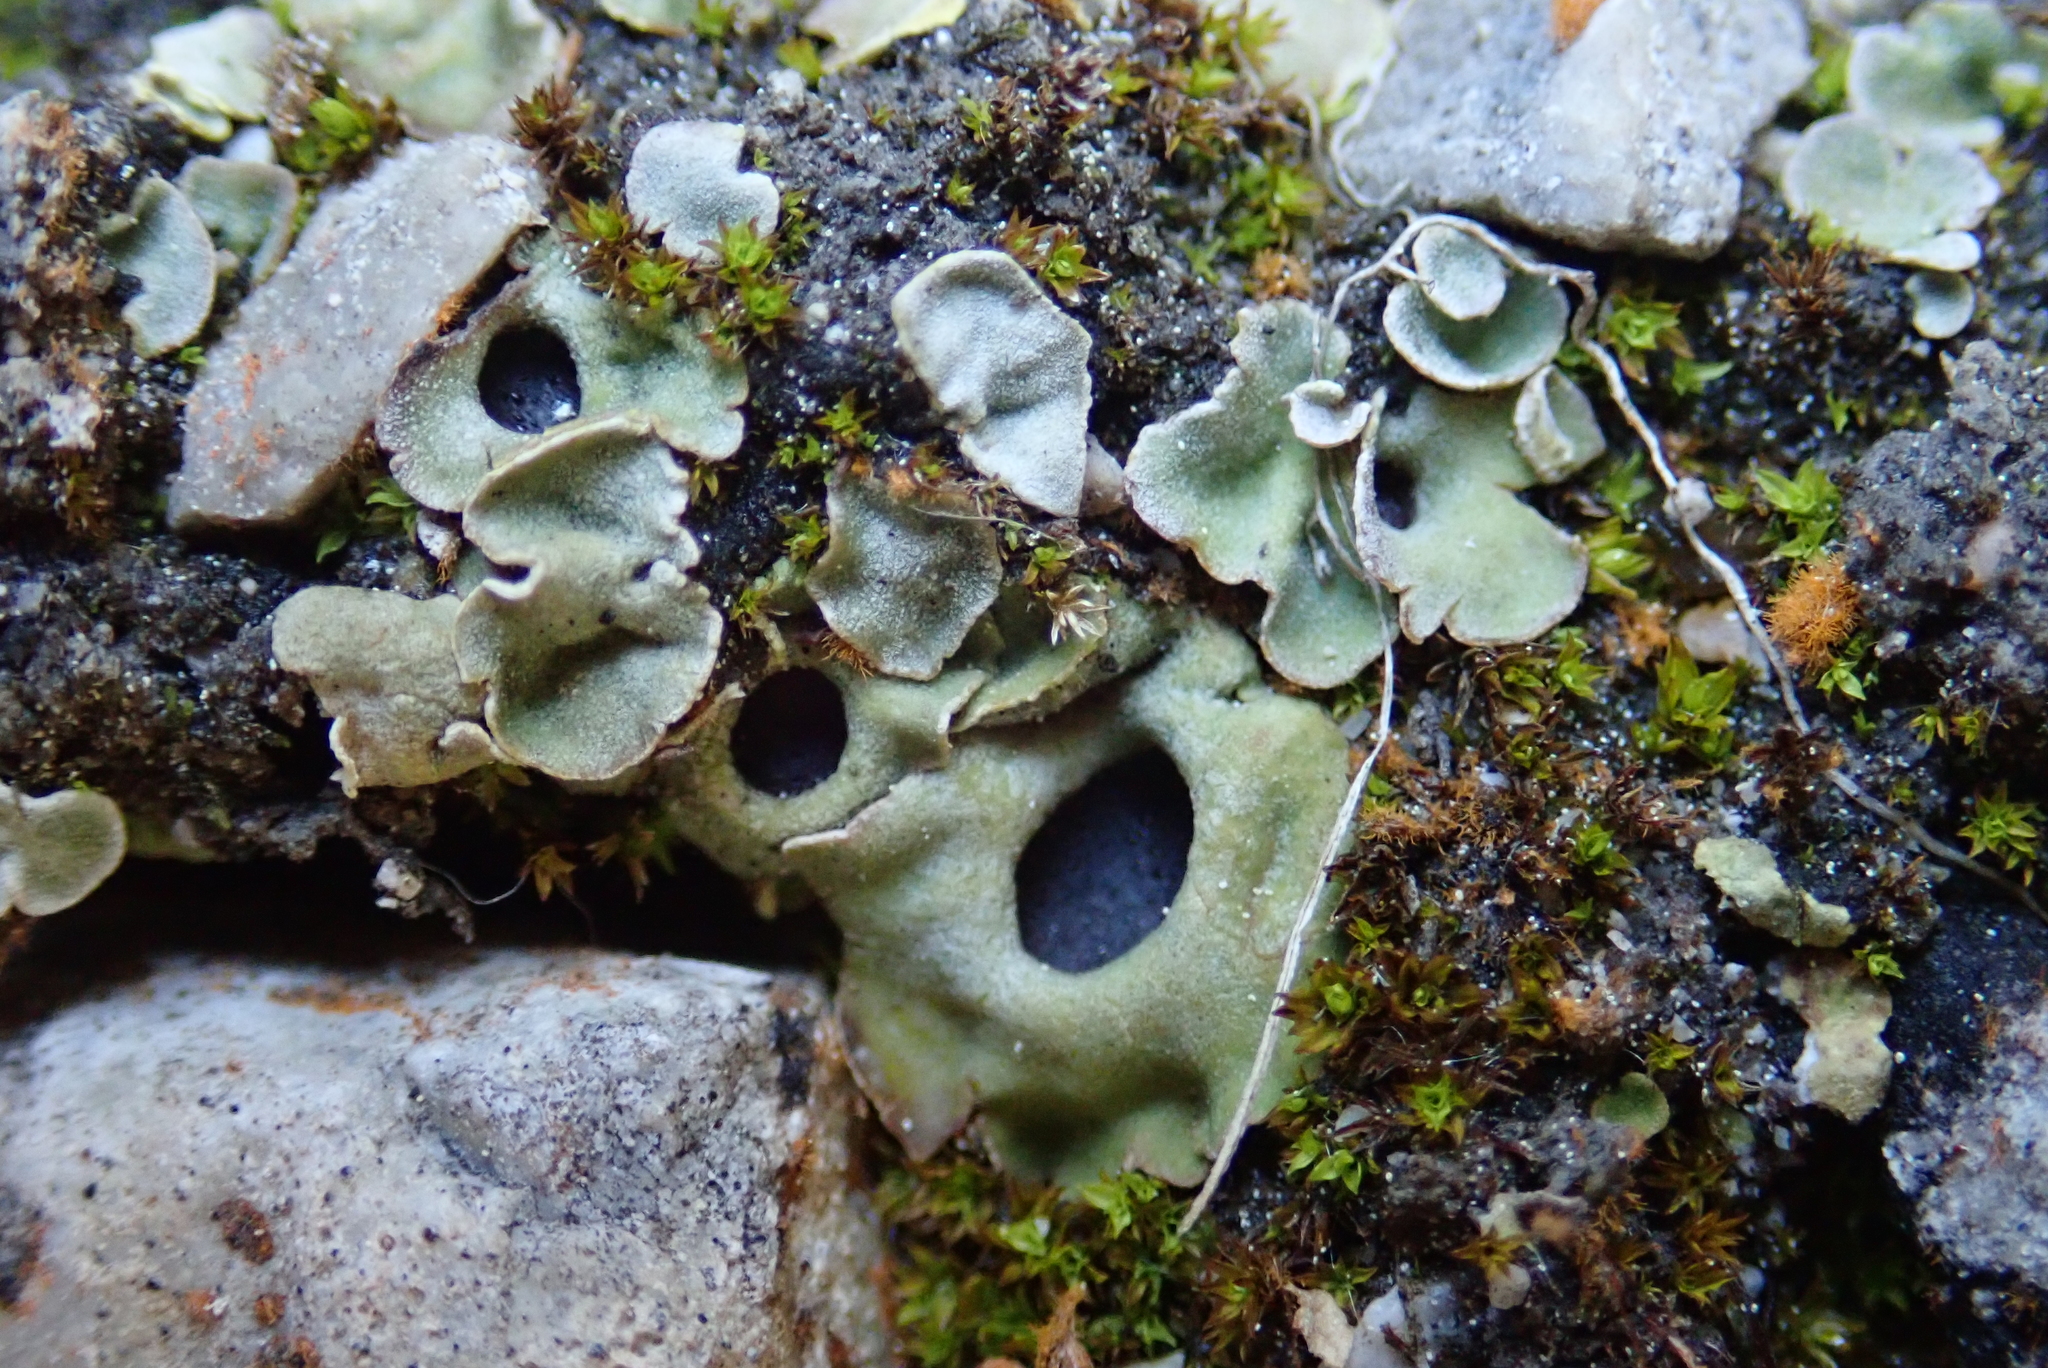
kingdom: Fungi
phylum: Ascomycota
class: Lecanoromycetes
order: Peltigerales
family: Peltigeraceae
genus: Solorina
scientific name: Solorina saccata
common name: Common chocolate chip lichen
